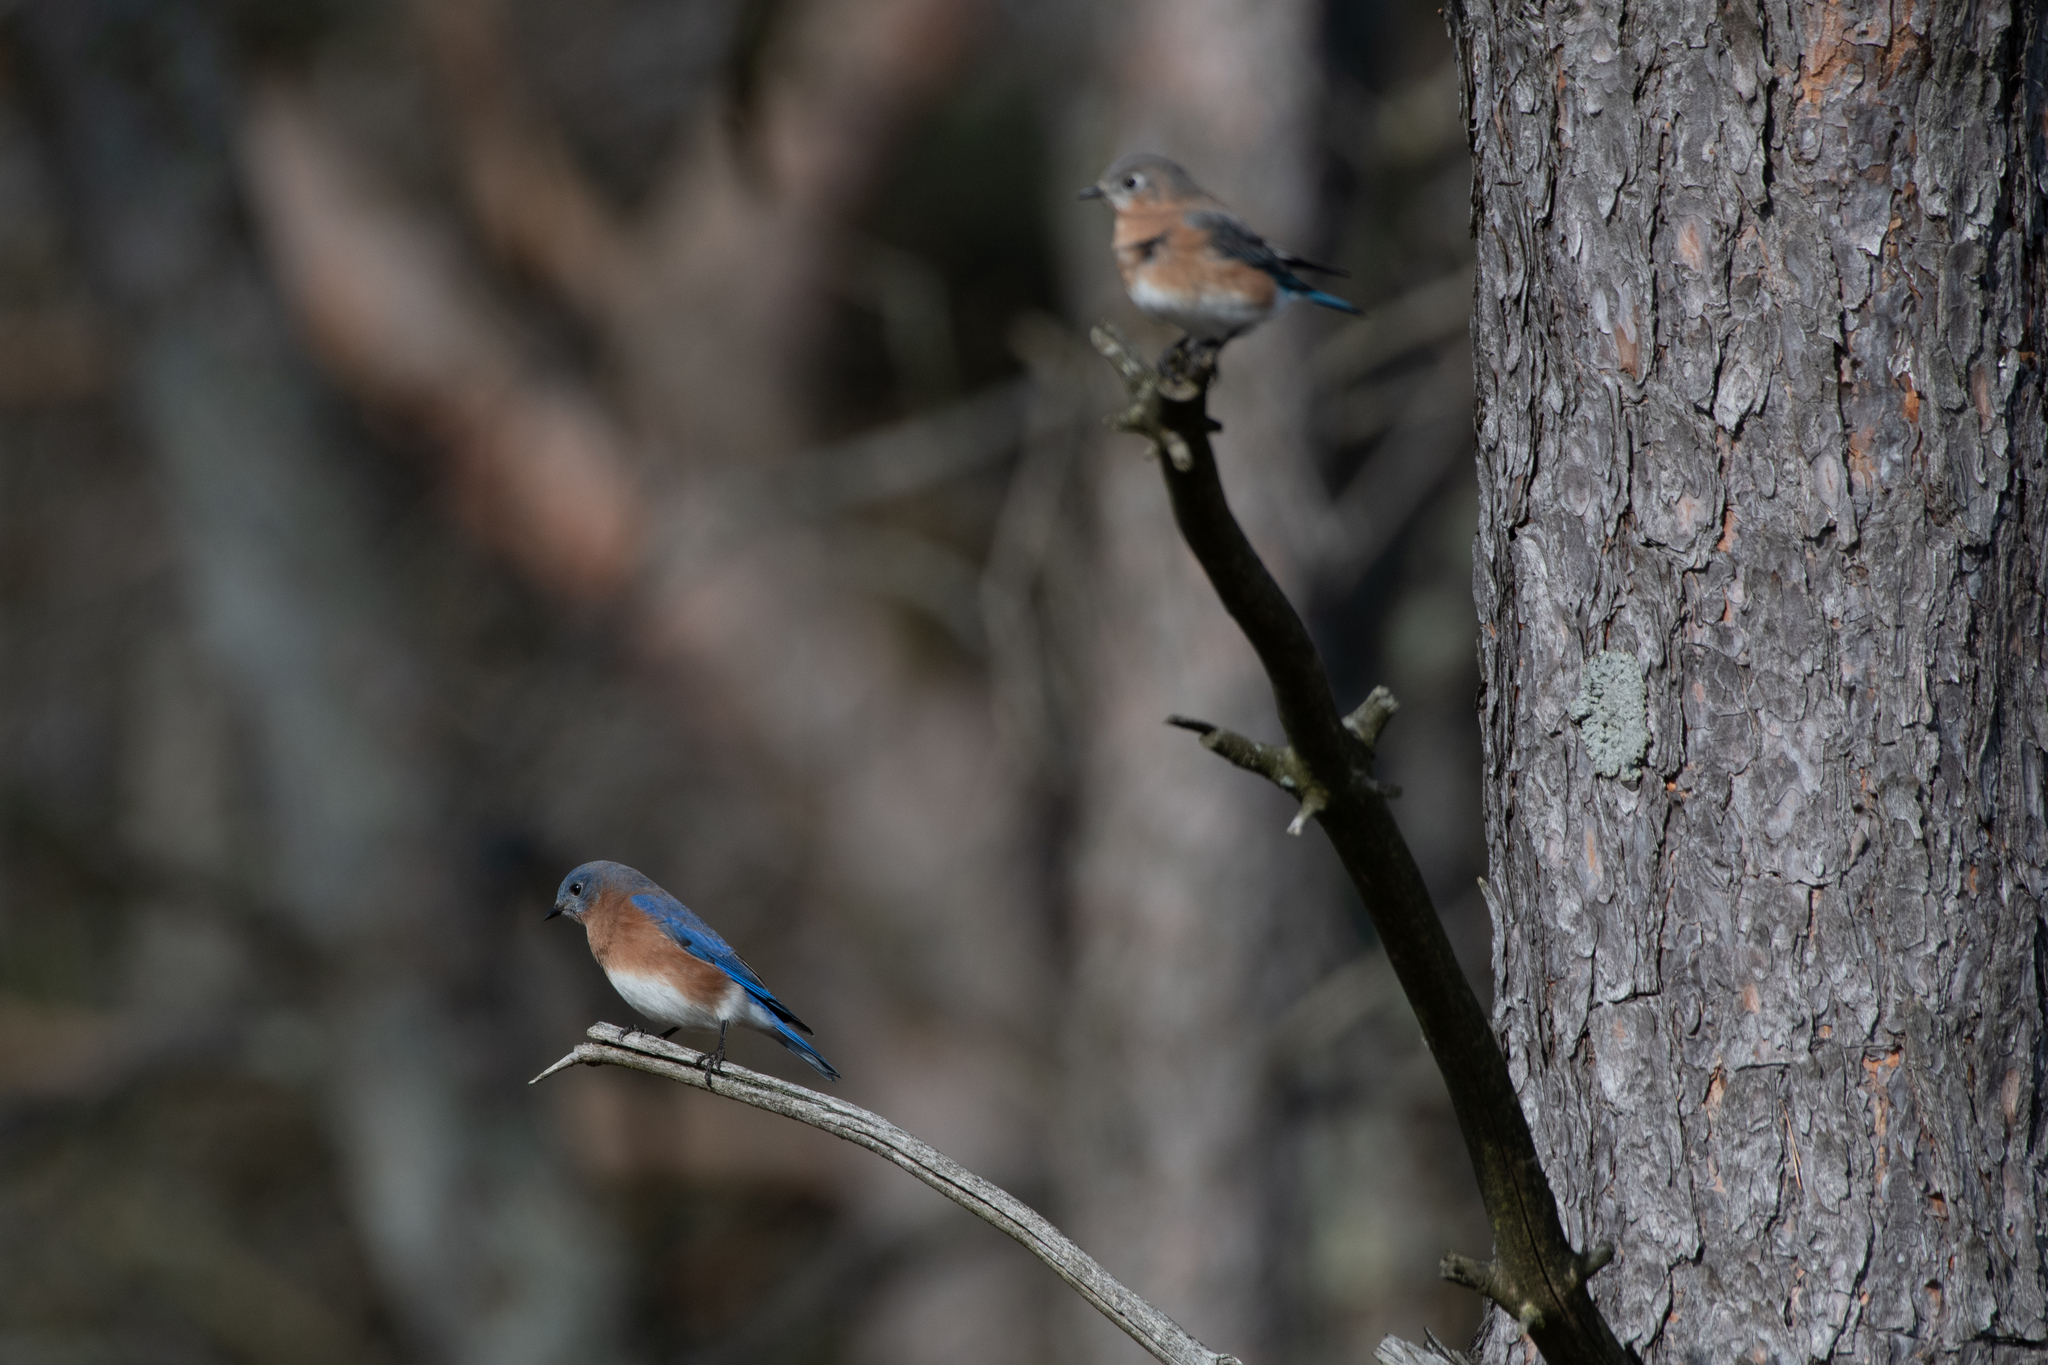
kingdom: Animalia
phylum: Chordata
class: Aves
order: Passeriformes
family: Turdidae
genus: Sialia
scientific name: Sialia sialis
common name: Eastern bluebird
